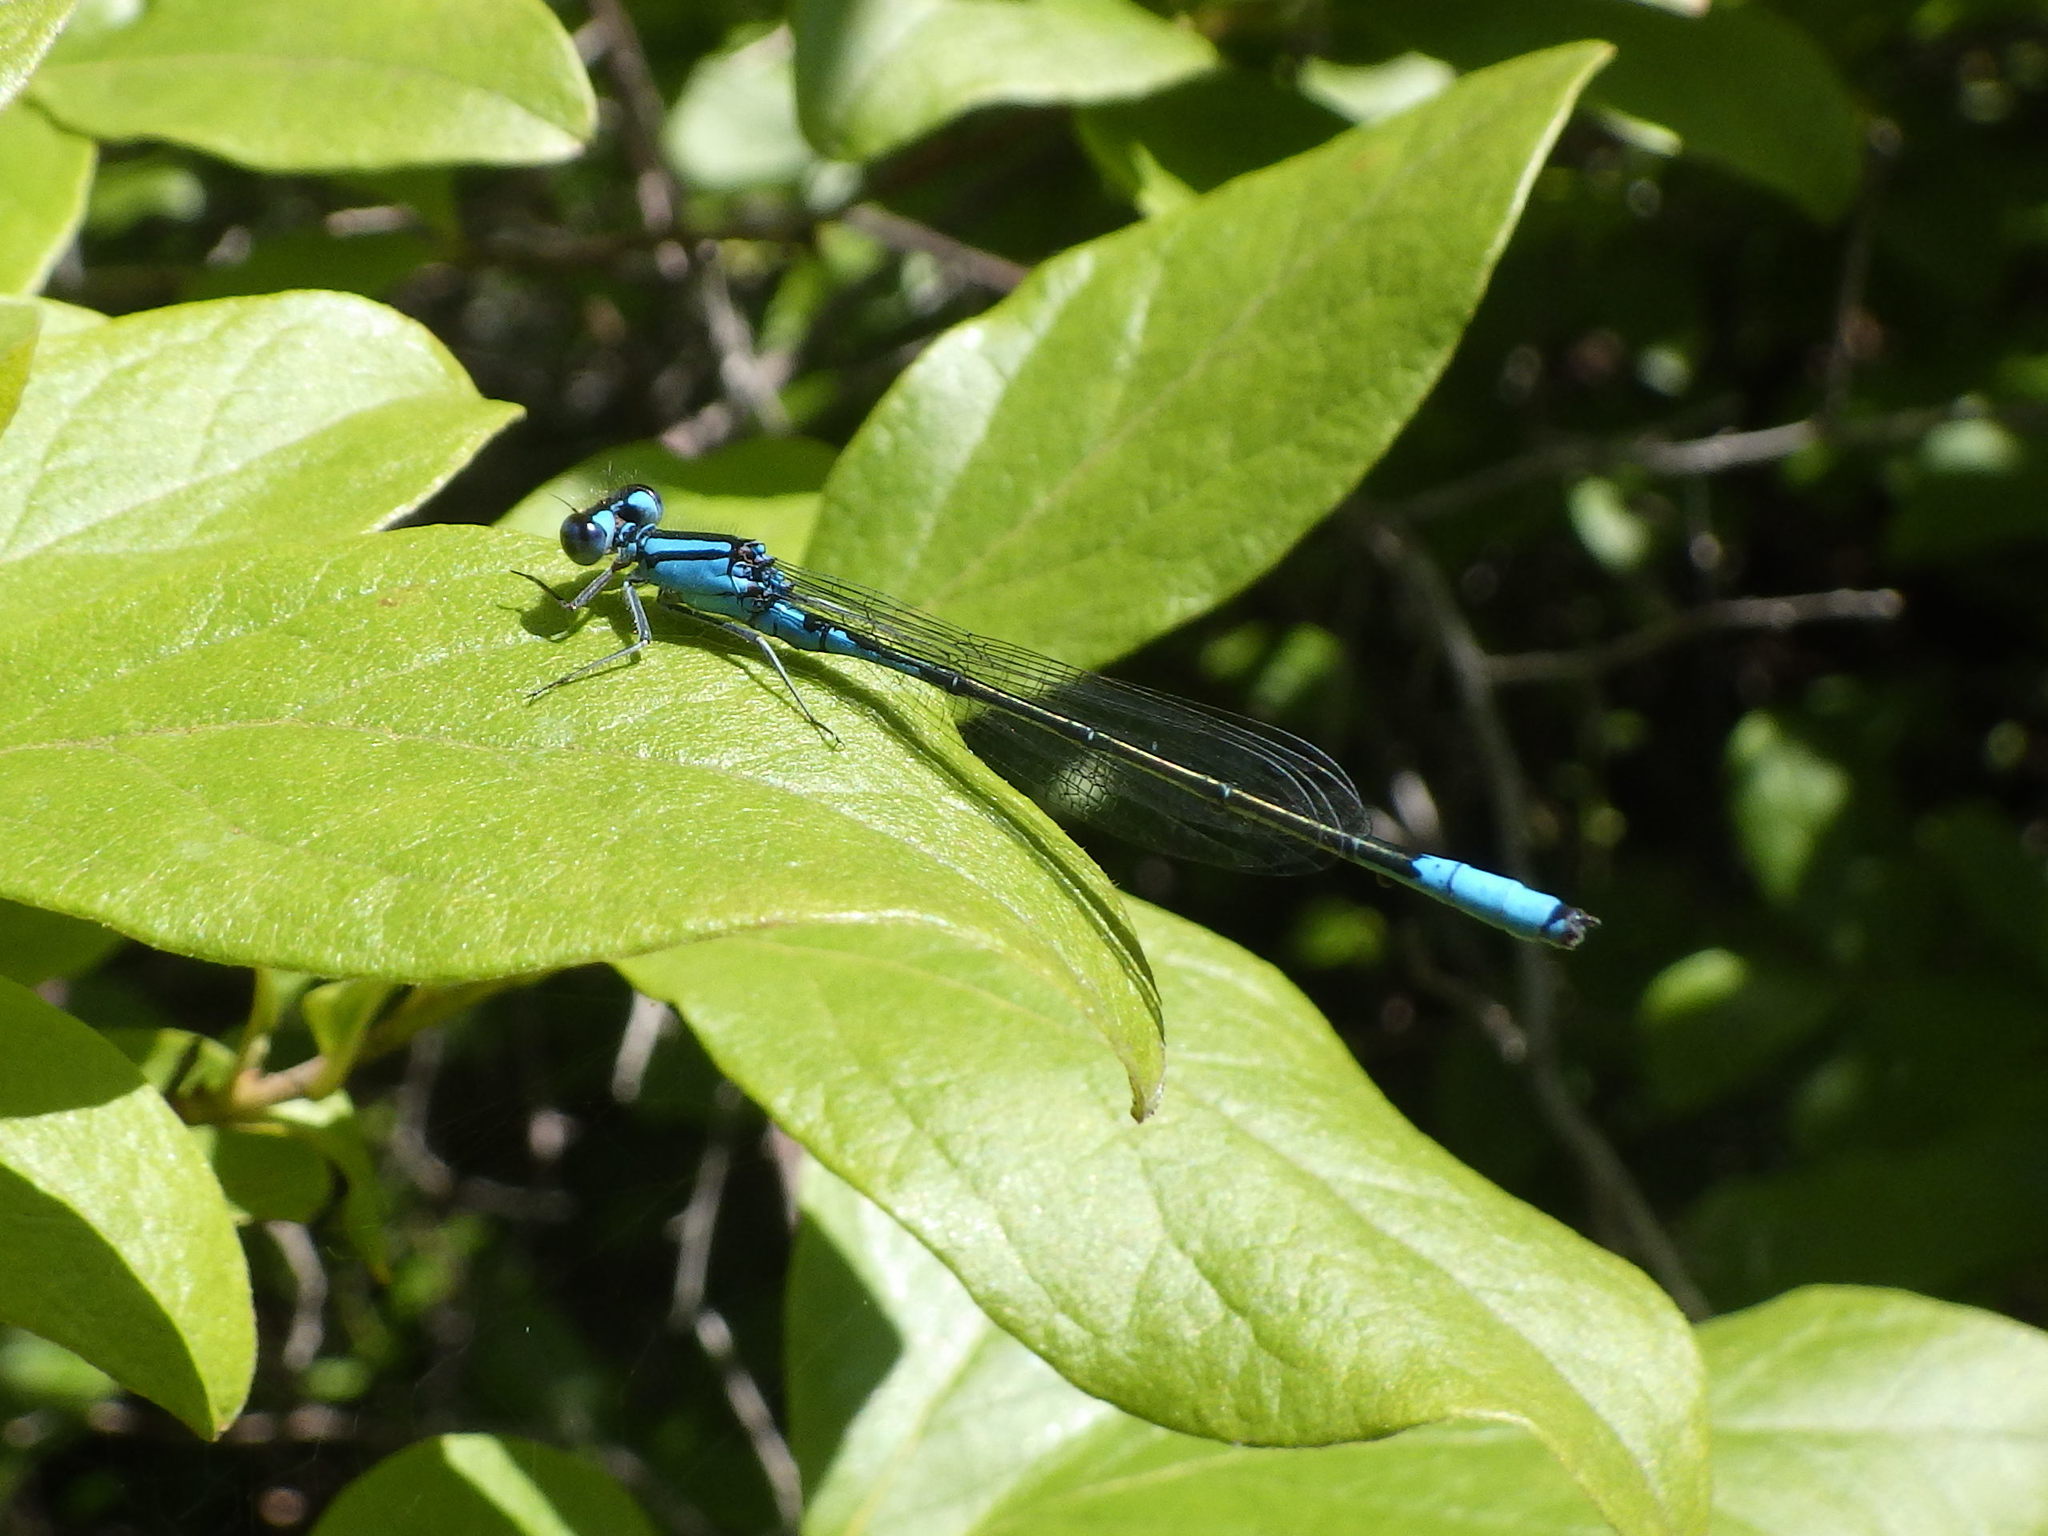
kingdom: Animalia
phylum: Arthropoda
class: Insecta
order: Odonata
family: Coenagrionidae
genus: Enallagma
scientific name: Enallagma aspersum
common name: Azure bluet
